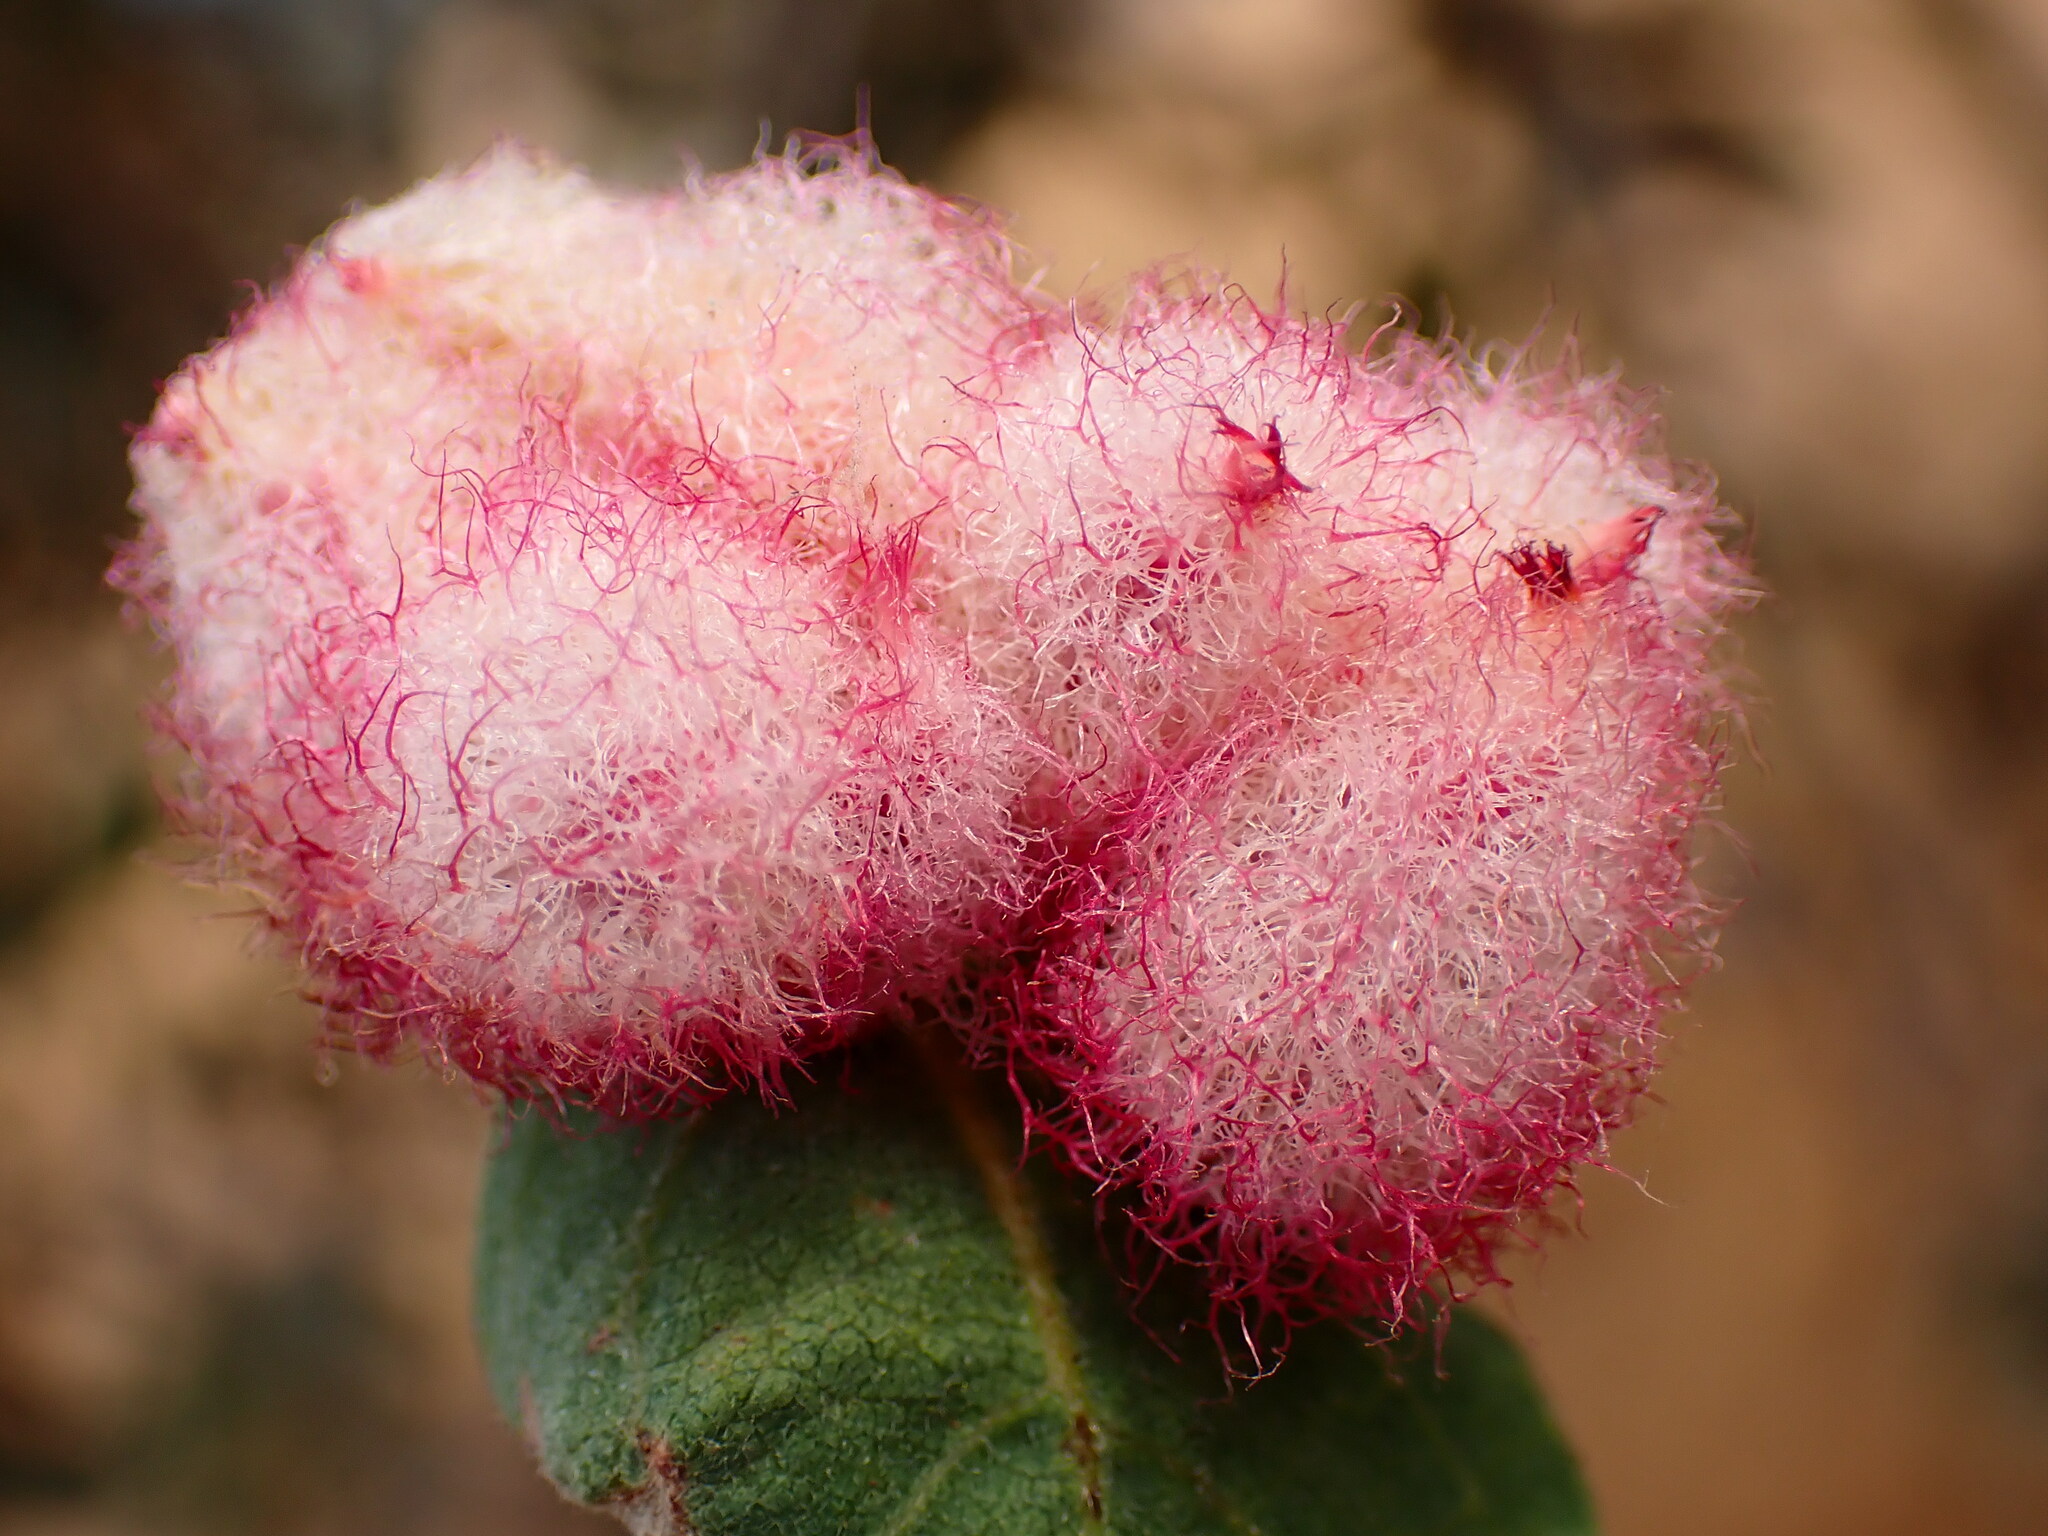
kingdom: Animalia
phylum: Arthropoda
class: Insecta
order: Hymenoptera
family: Cynipidae
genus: Andricus
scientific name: Andricus
